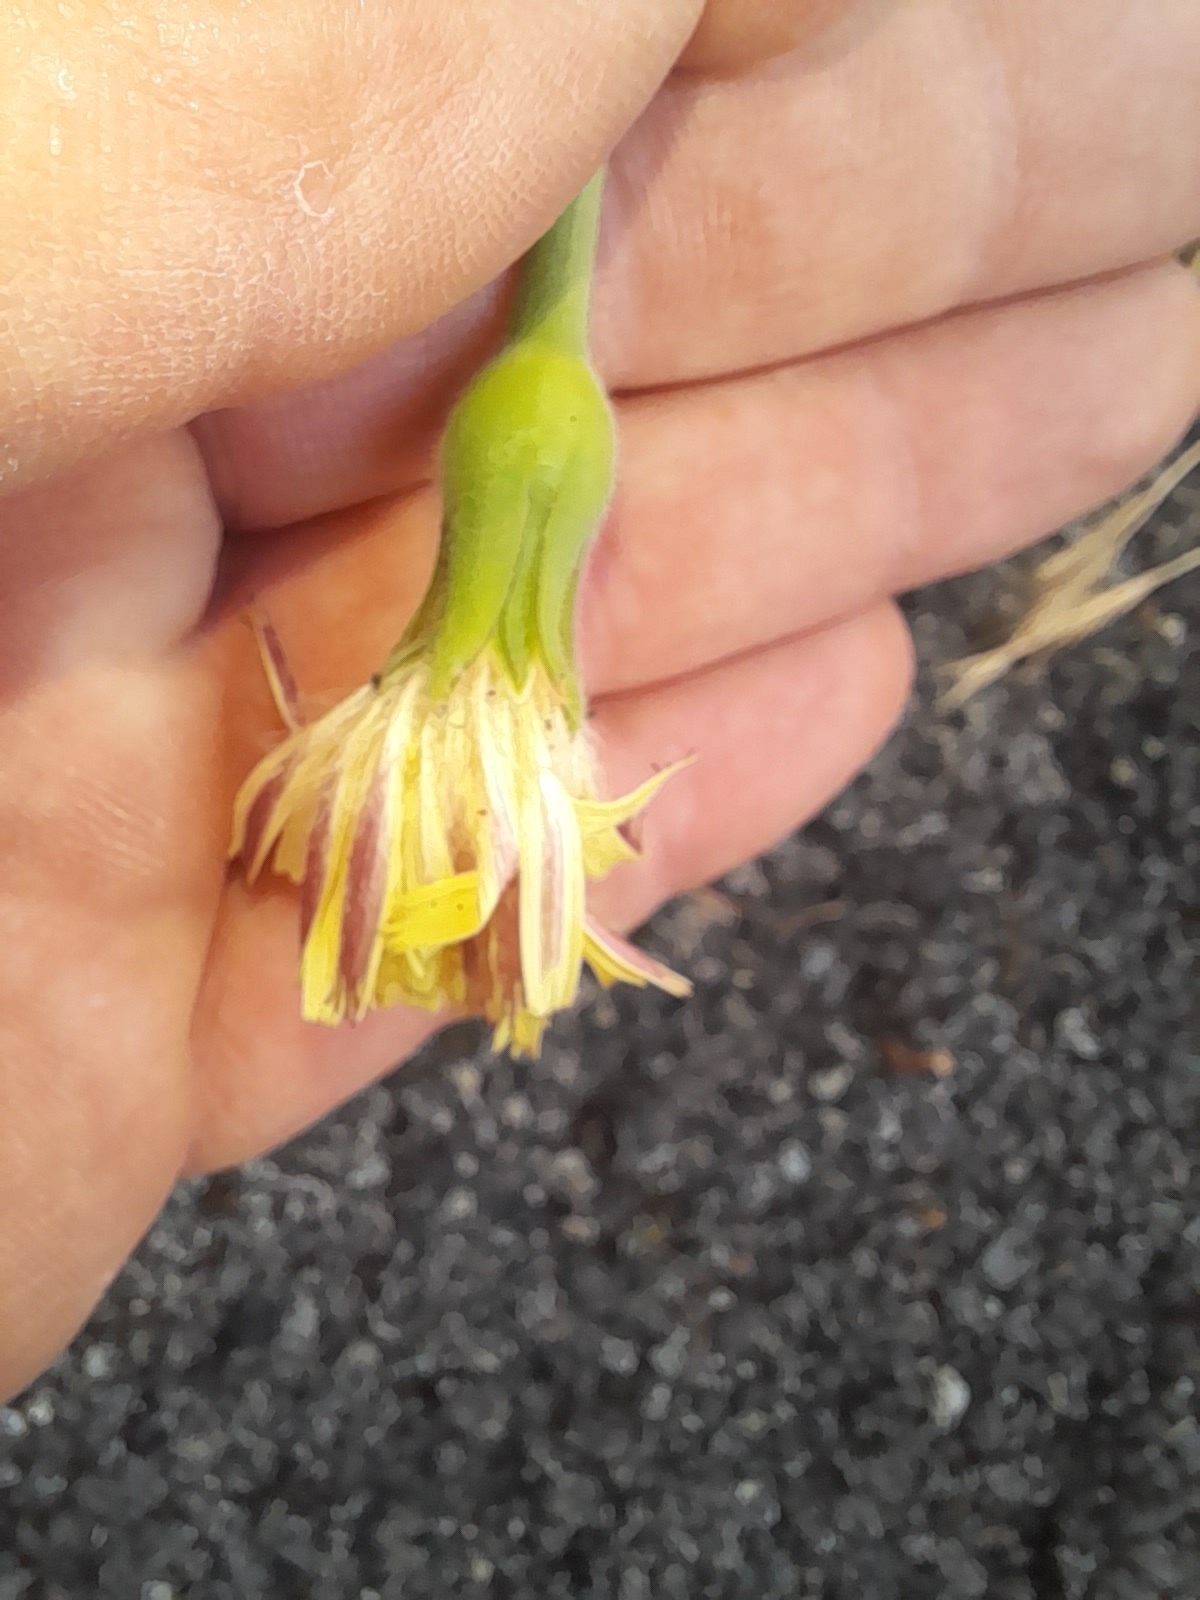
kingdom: Plantae
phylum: Tracheophyta
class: Magnoliopsida
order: Asterales
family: Asteraceae
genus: Urospermum
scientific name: Urospermum dalechampii
